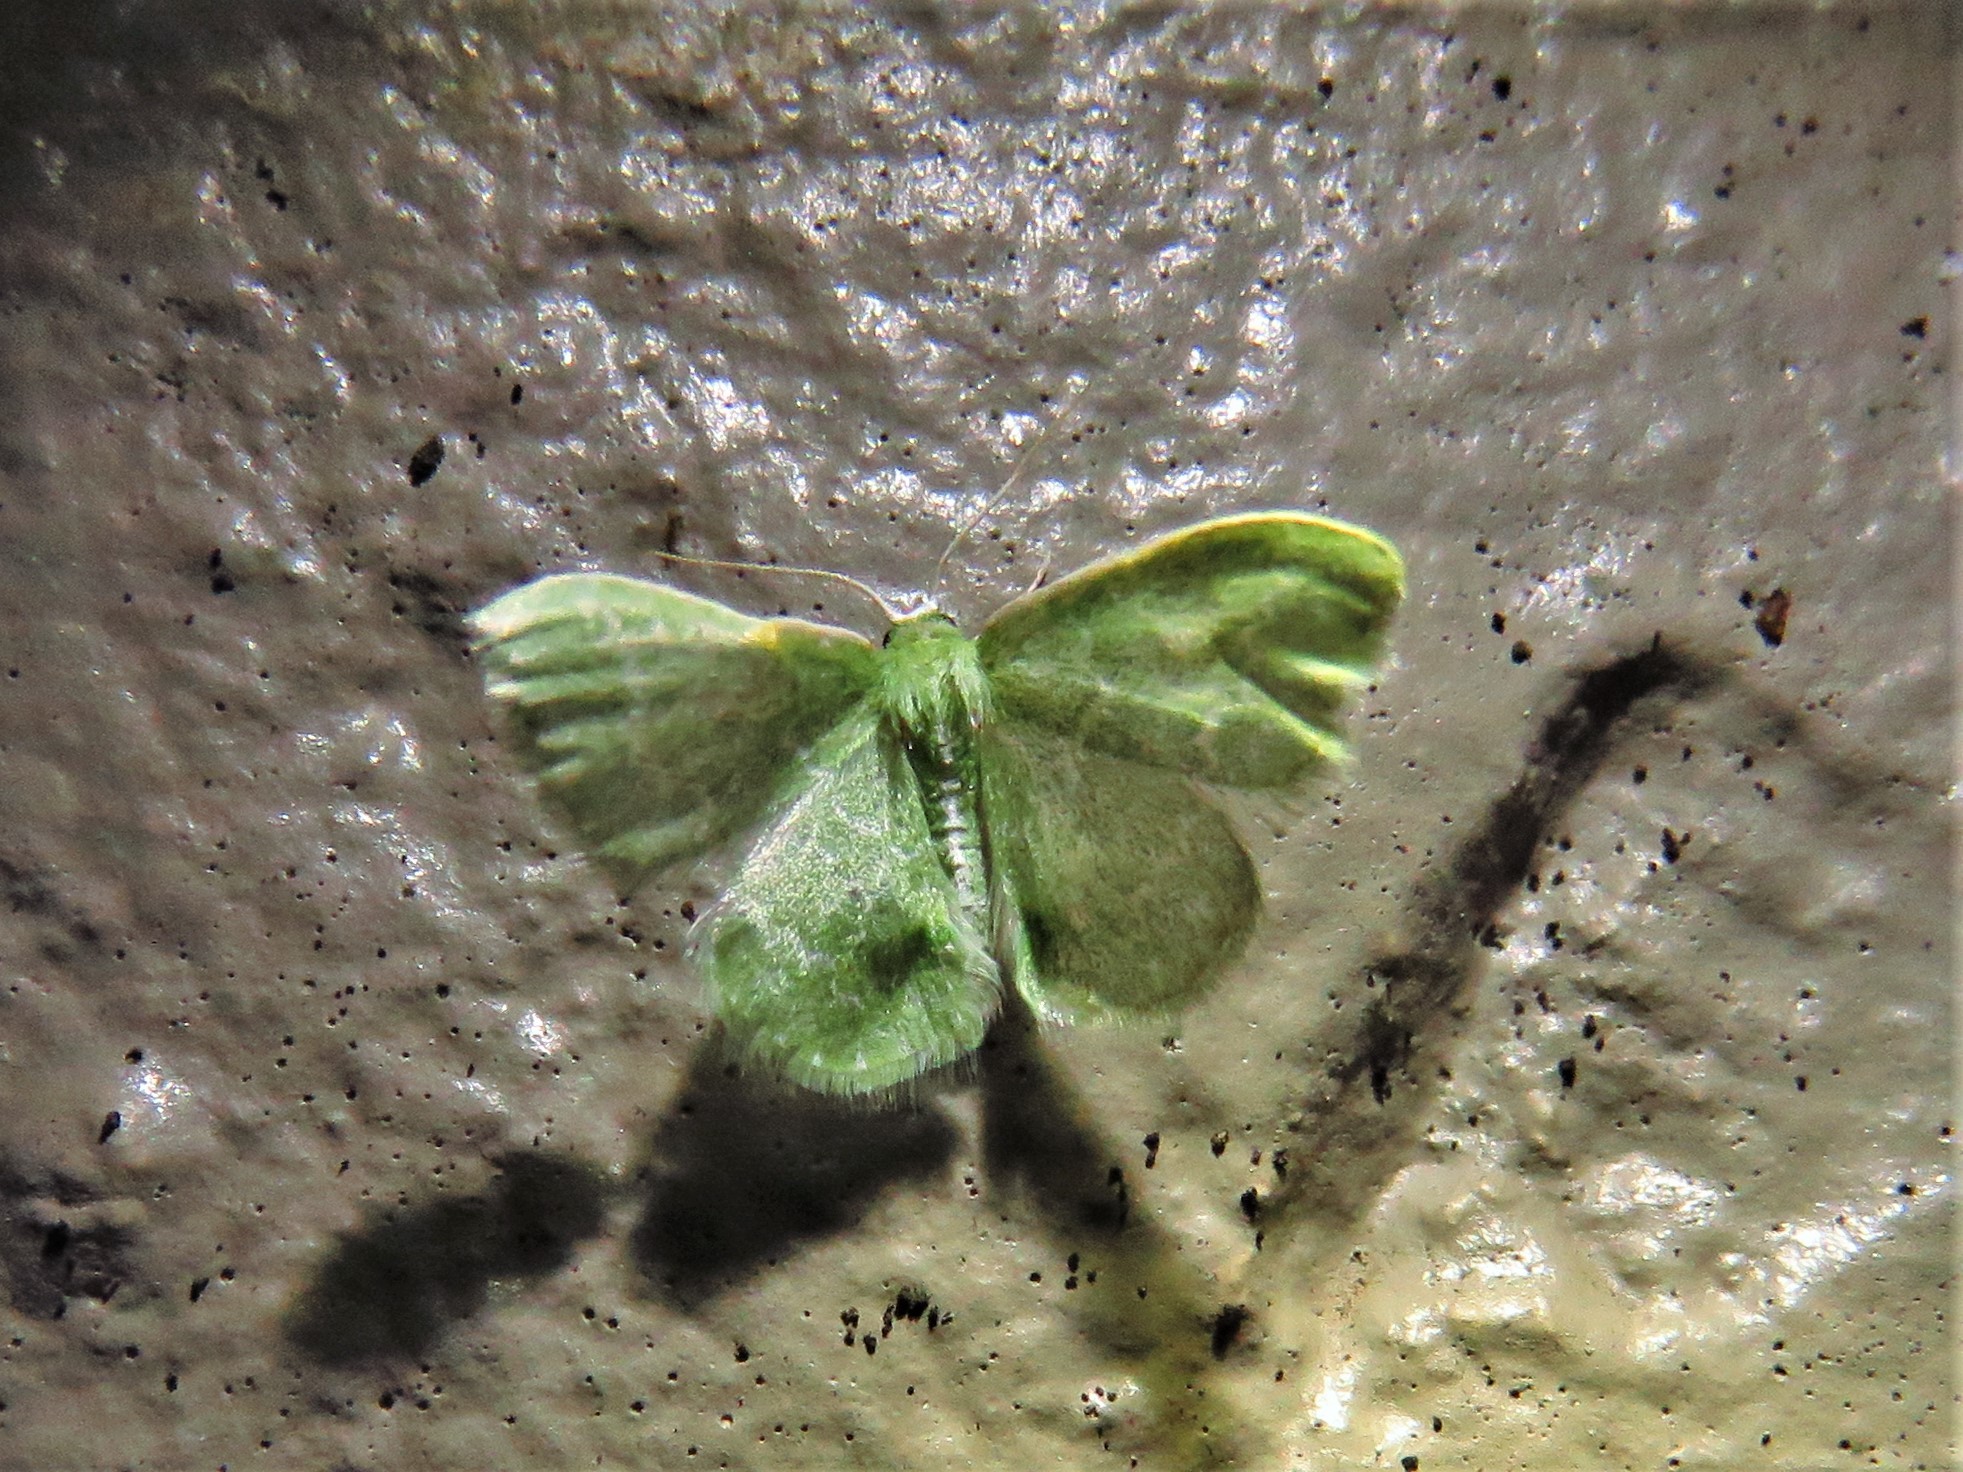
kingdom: Animalia
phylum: Arthropoda
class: Insecta
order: Lepidoptera
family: Geometridae
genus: Synchlora
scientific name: Synchlora frondaria
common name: Southern emerald
